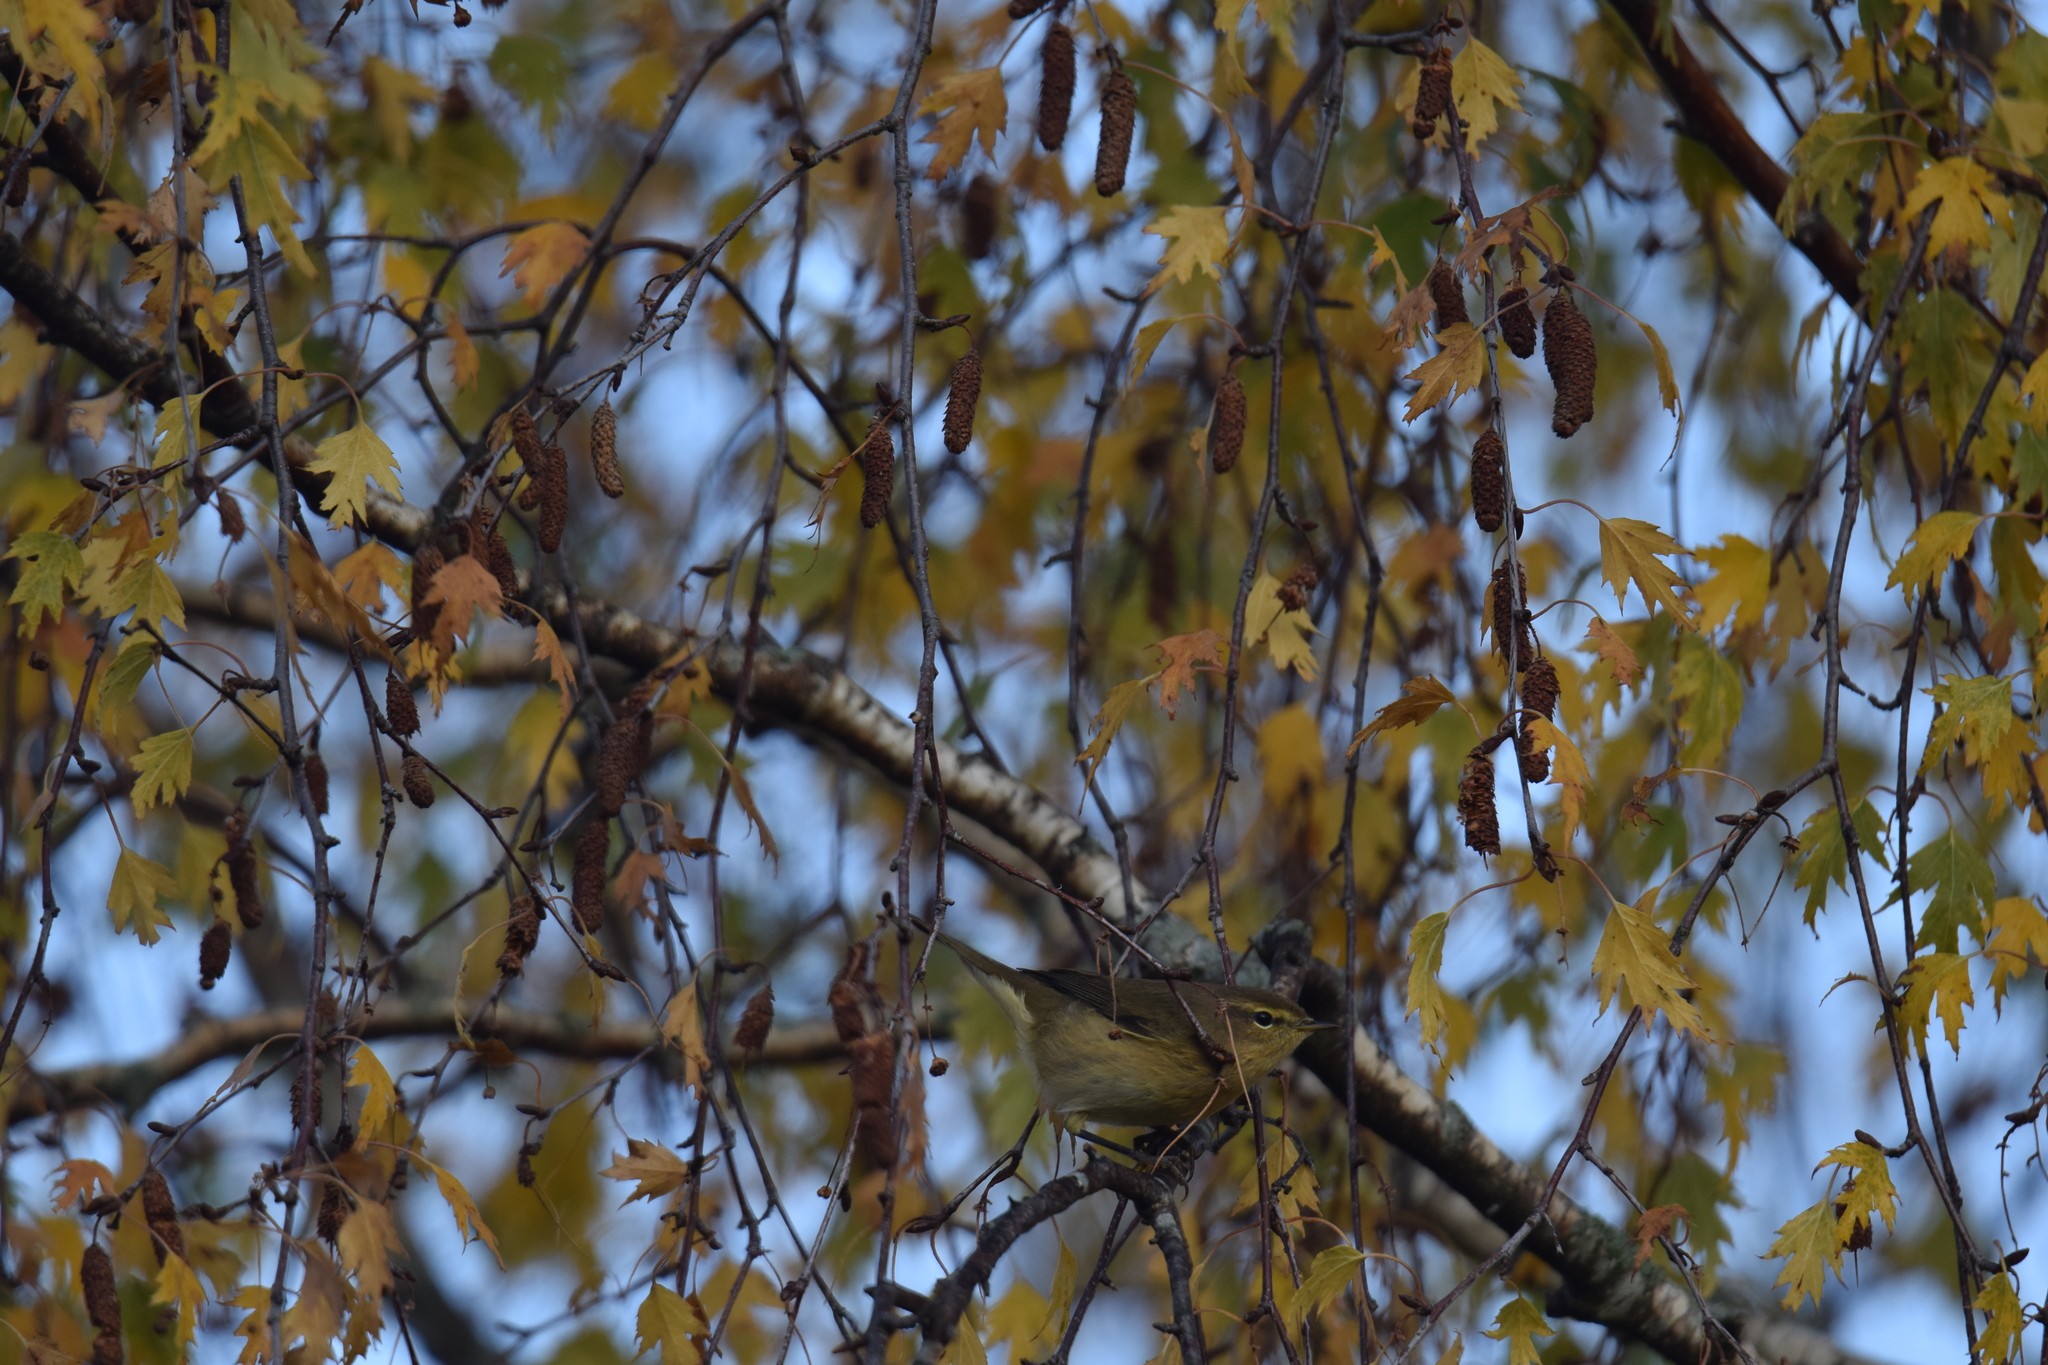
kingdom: Animalia
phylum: Chordata
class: Aves
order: Passeriformes
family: Phylloscopidae
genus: Phylloscopus
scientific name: Phylloscopus collybita
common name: Common chiffchaff
